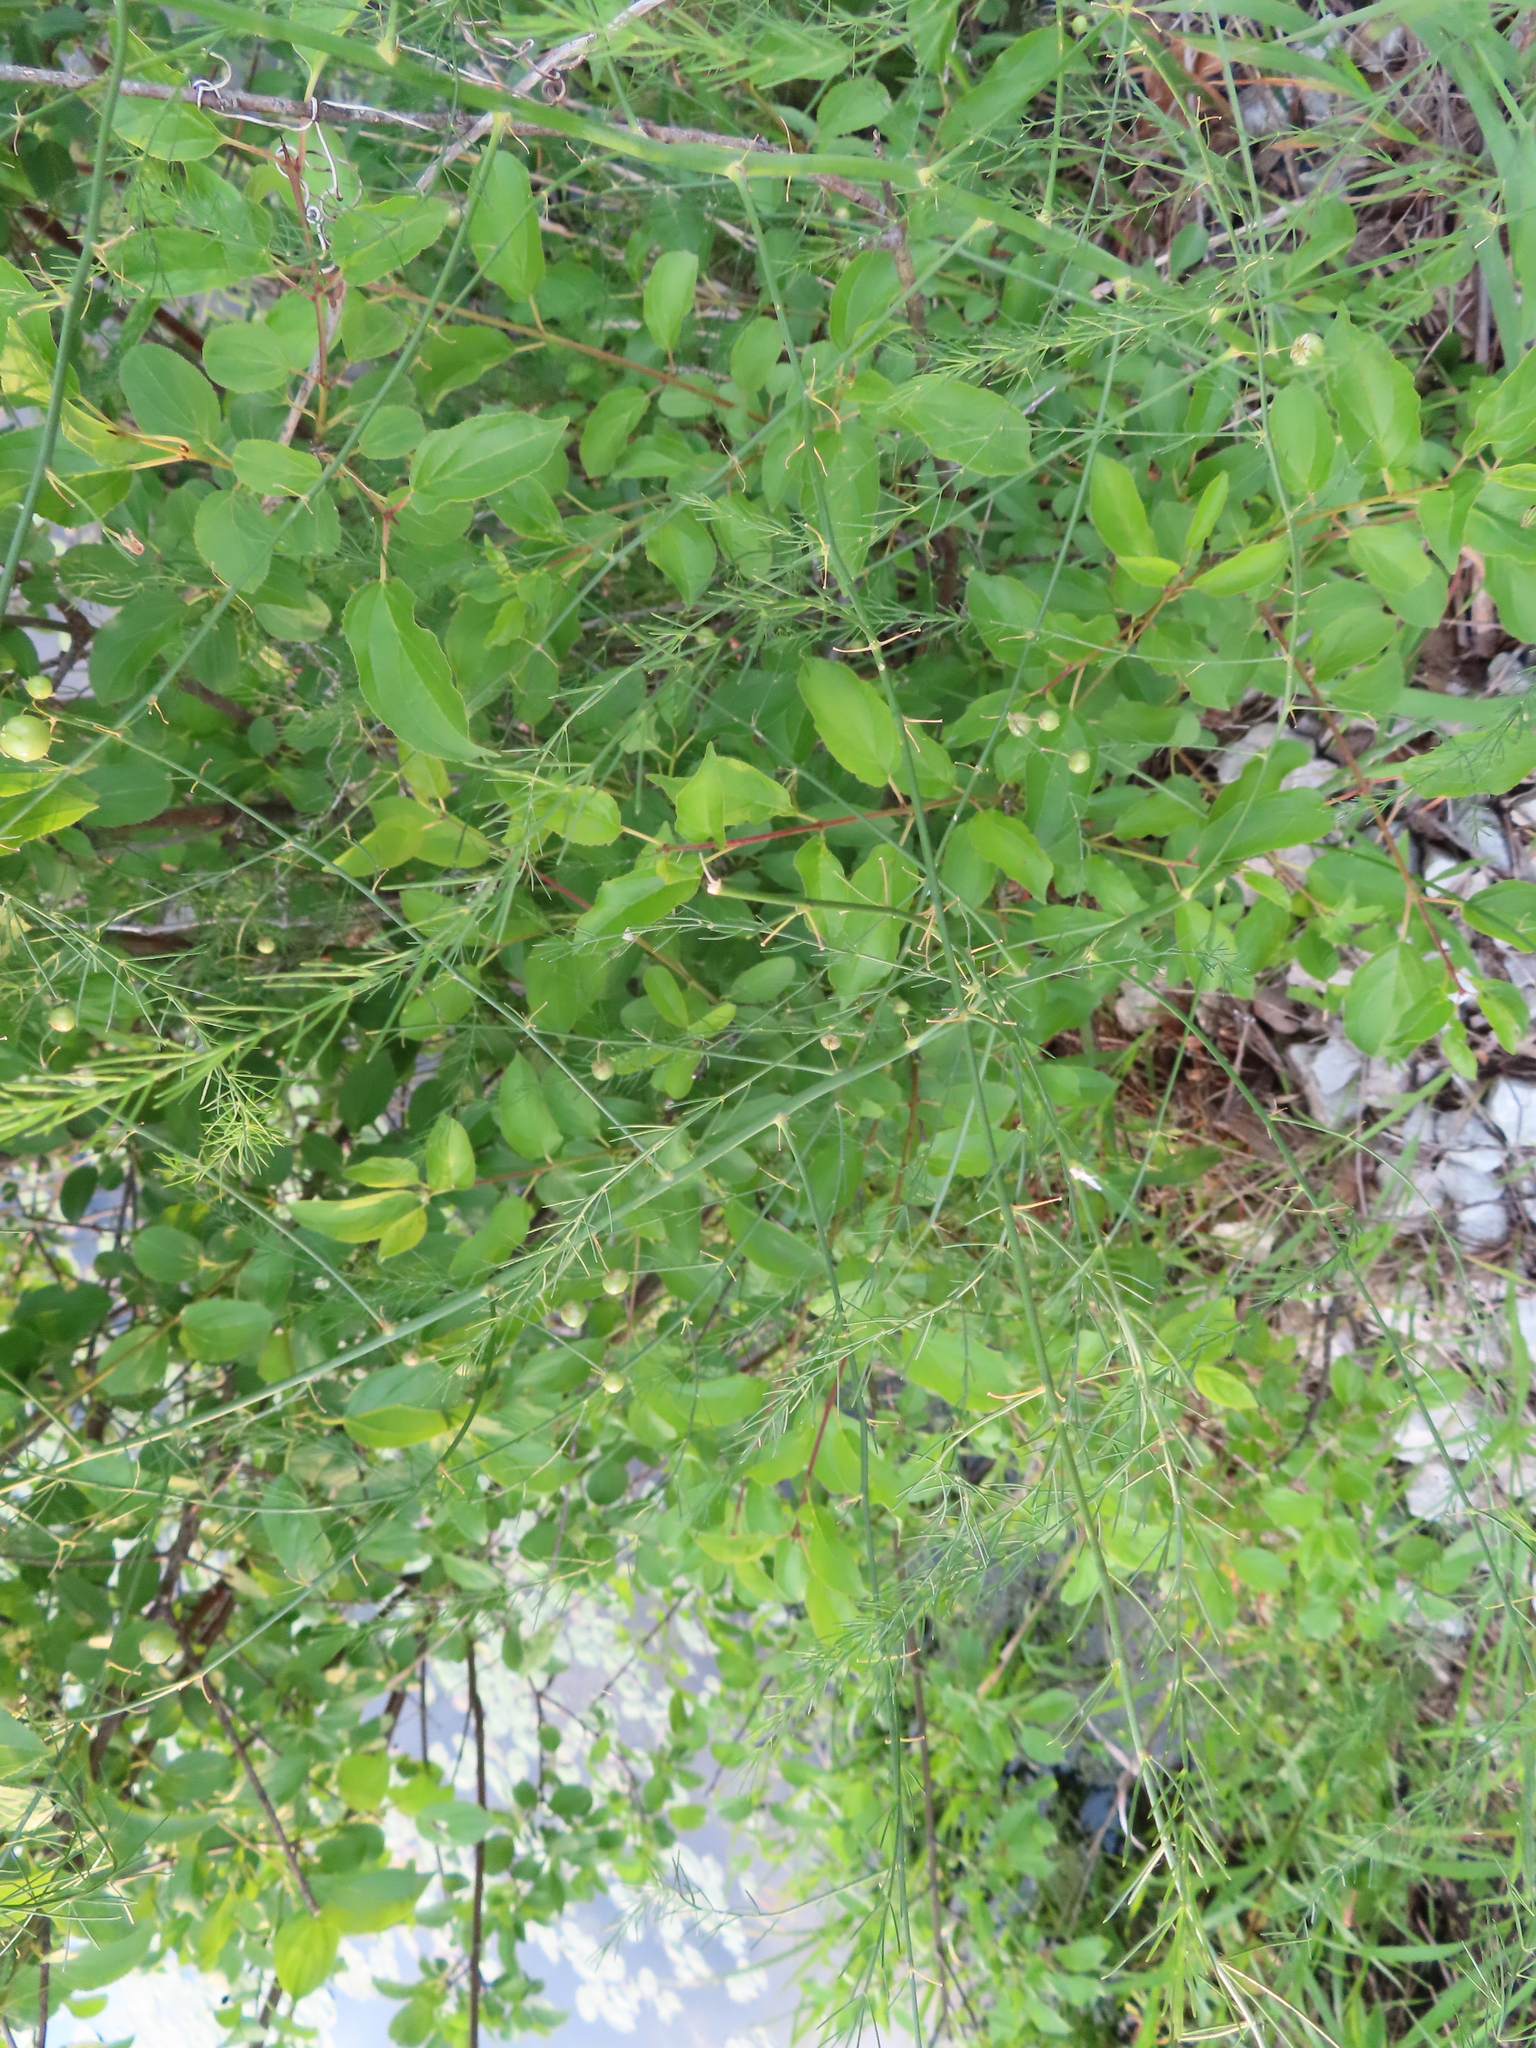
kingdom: Plantae
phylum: Tracheophyta
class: Liliopsida
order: Asparagales
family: Asparagaceae
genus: Asparagus
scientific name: Asparagus officinalis
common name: Garden asparagus
